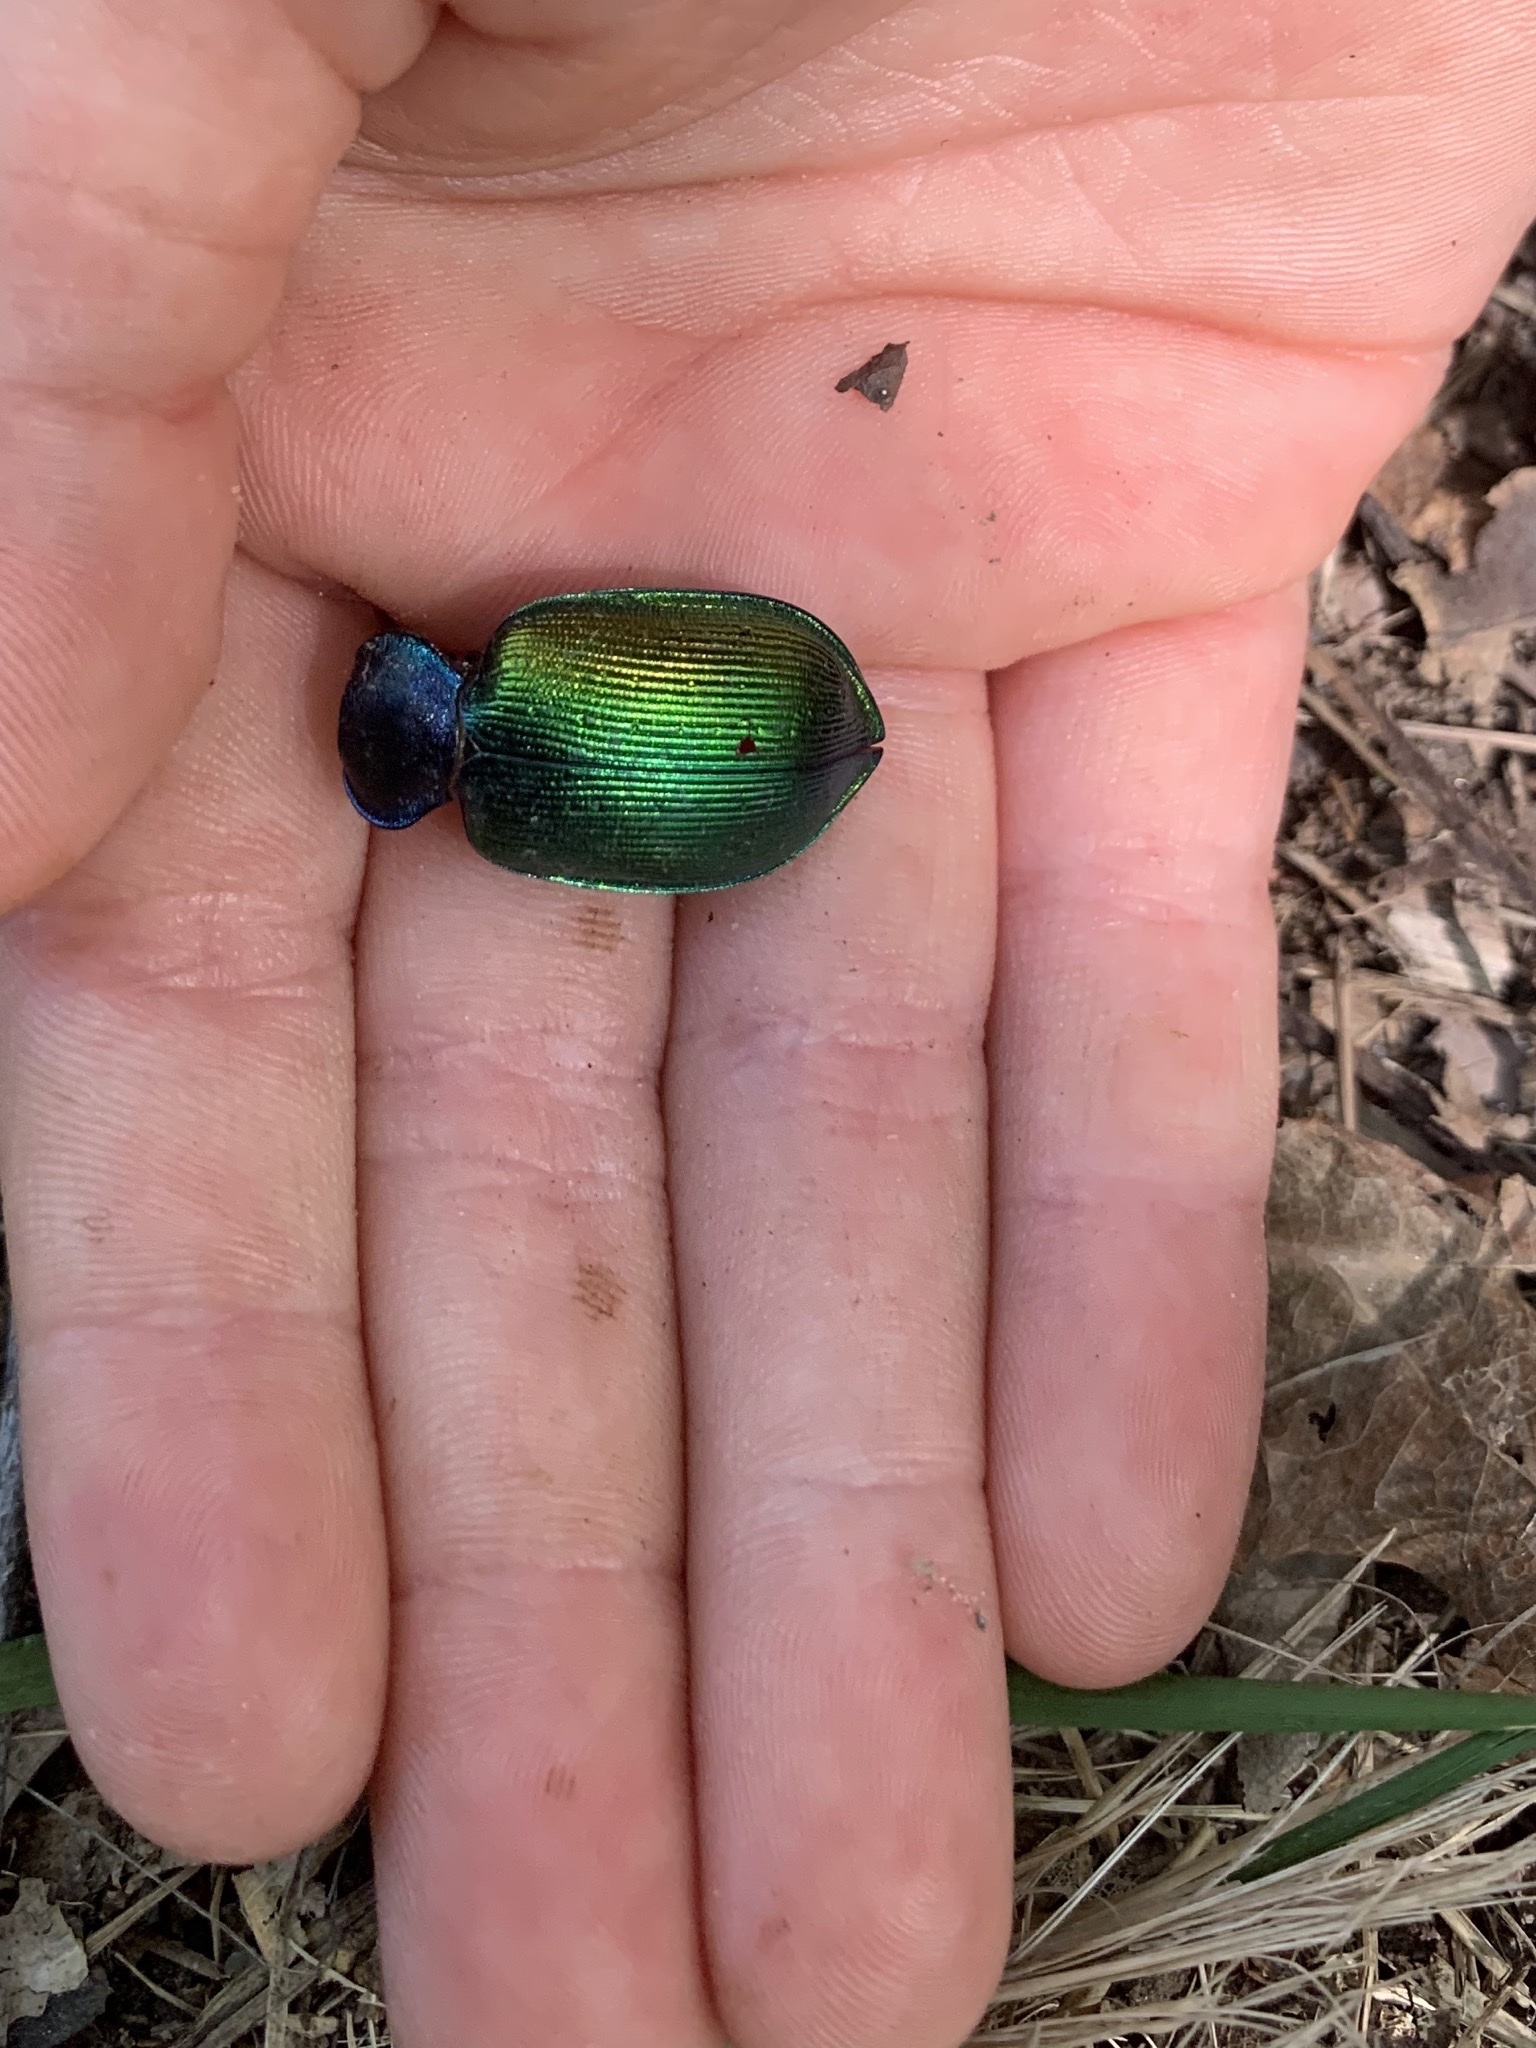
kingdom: Animalia
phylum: Arthropoda
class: Insecta
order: Coleoptera
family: Carabidae
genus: Calosoma
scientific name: Calosoma sycophanta
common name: Forest caterpillar hunter
